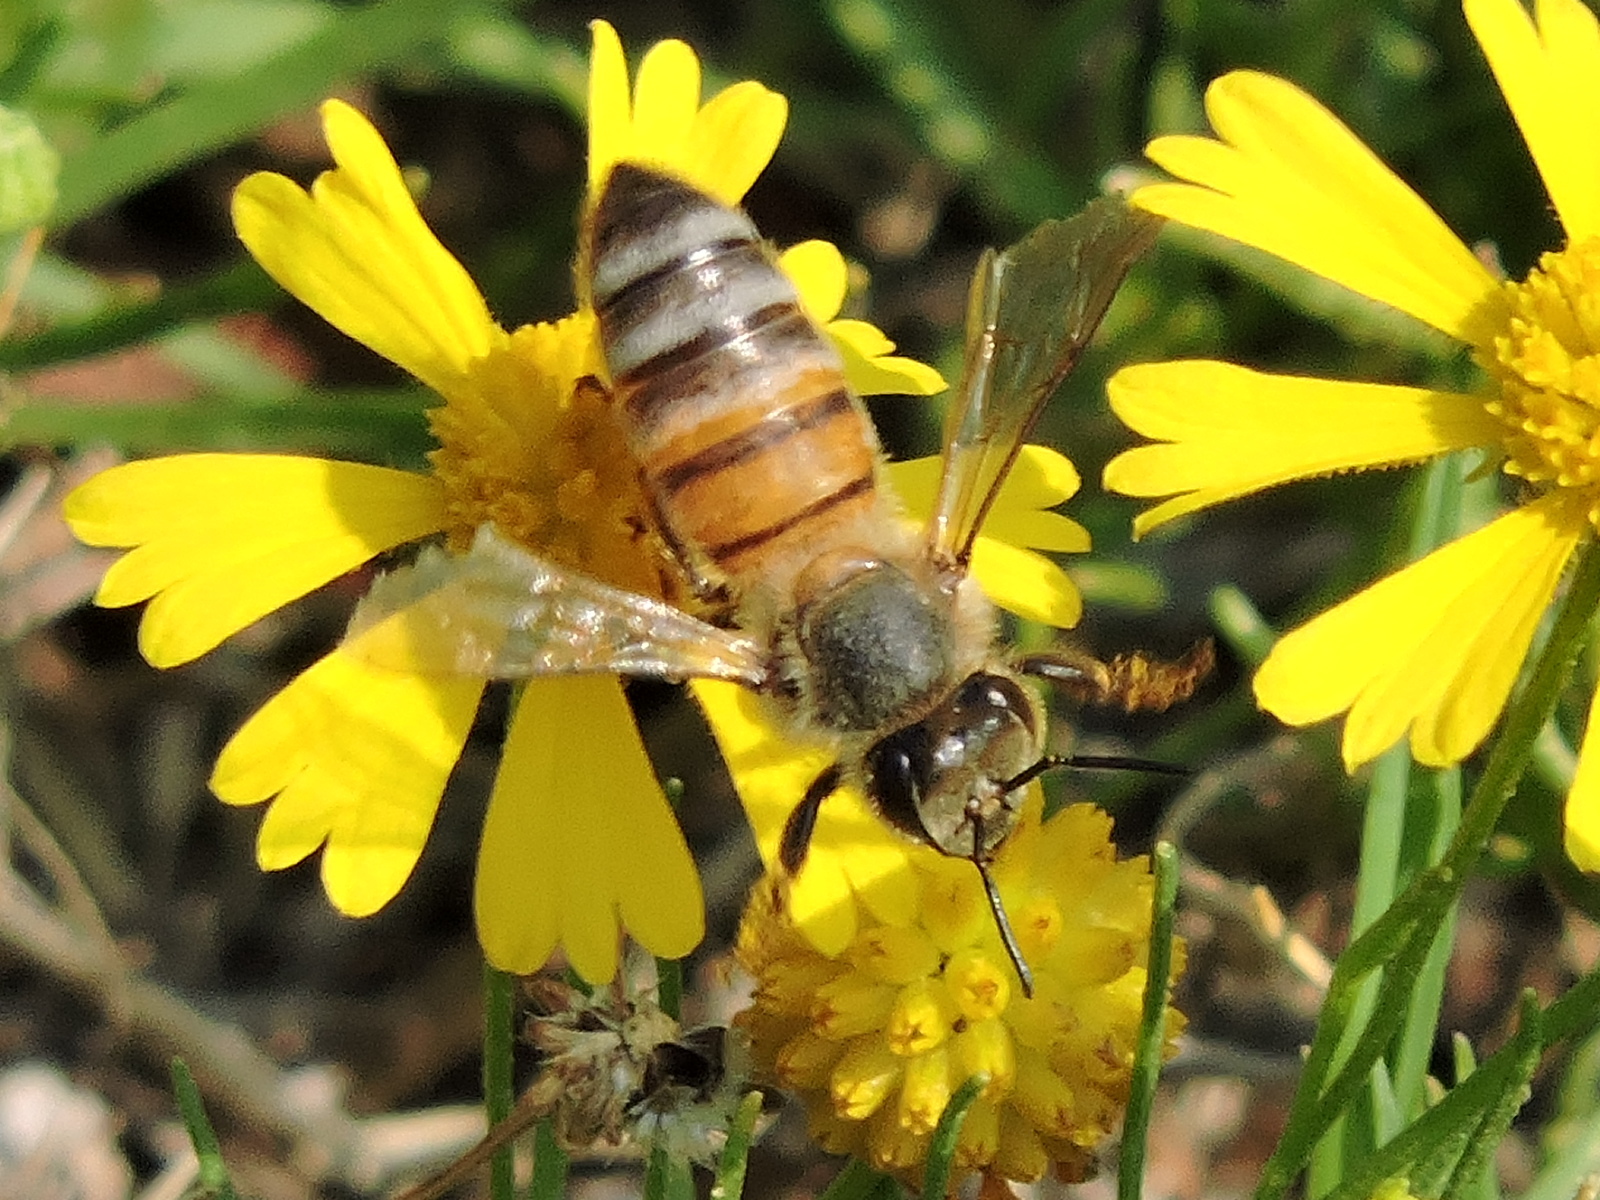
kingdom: Animalia
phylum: Arthropoda
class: Insecta
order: Hymenoptera
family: Apidae
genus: Apis
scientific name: Apis mellifera
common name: Honey bee
